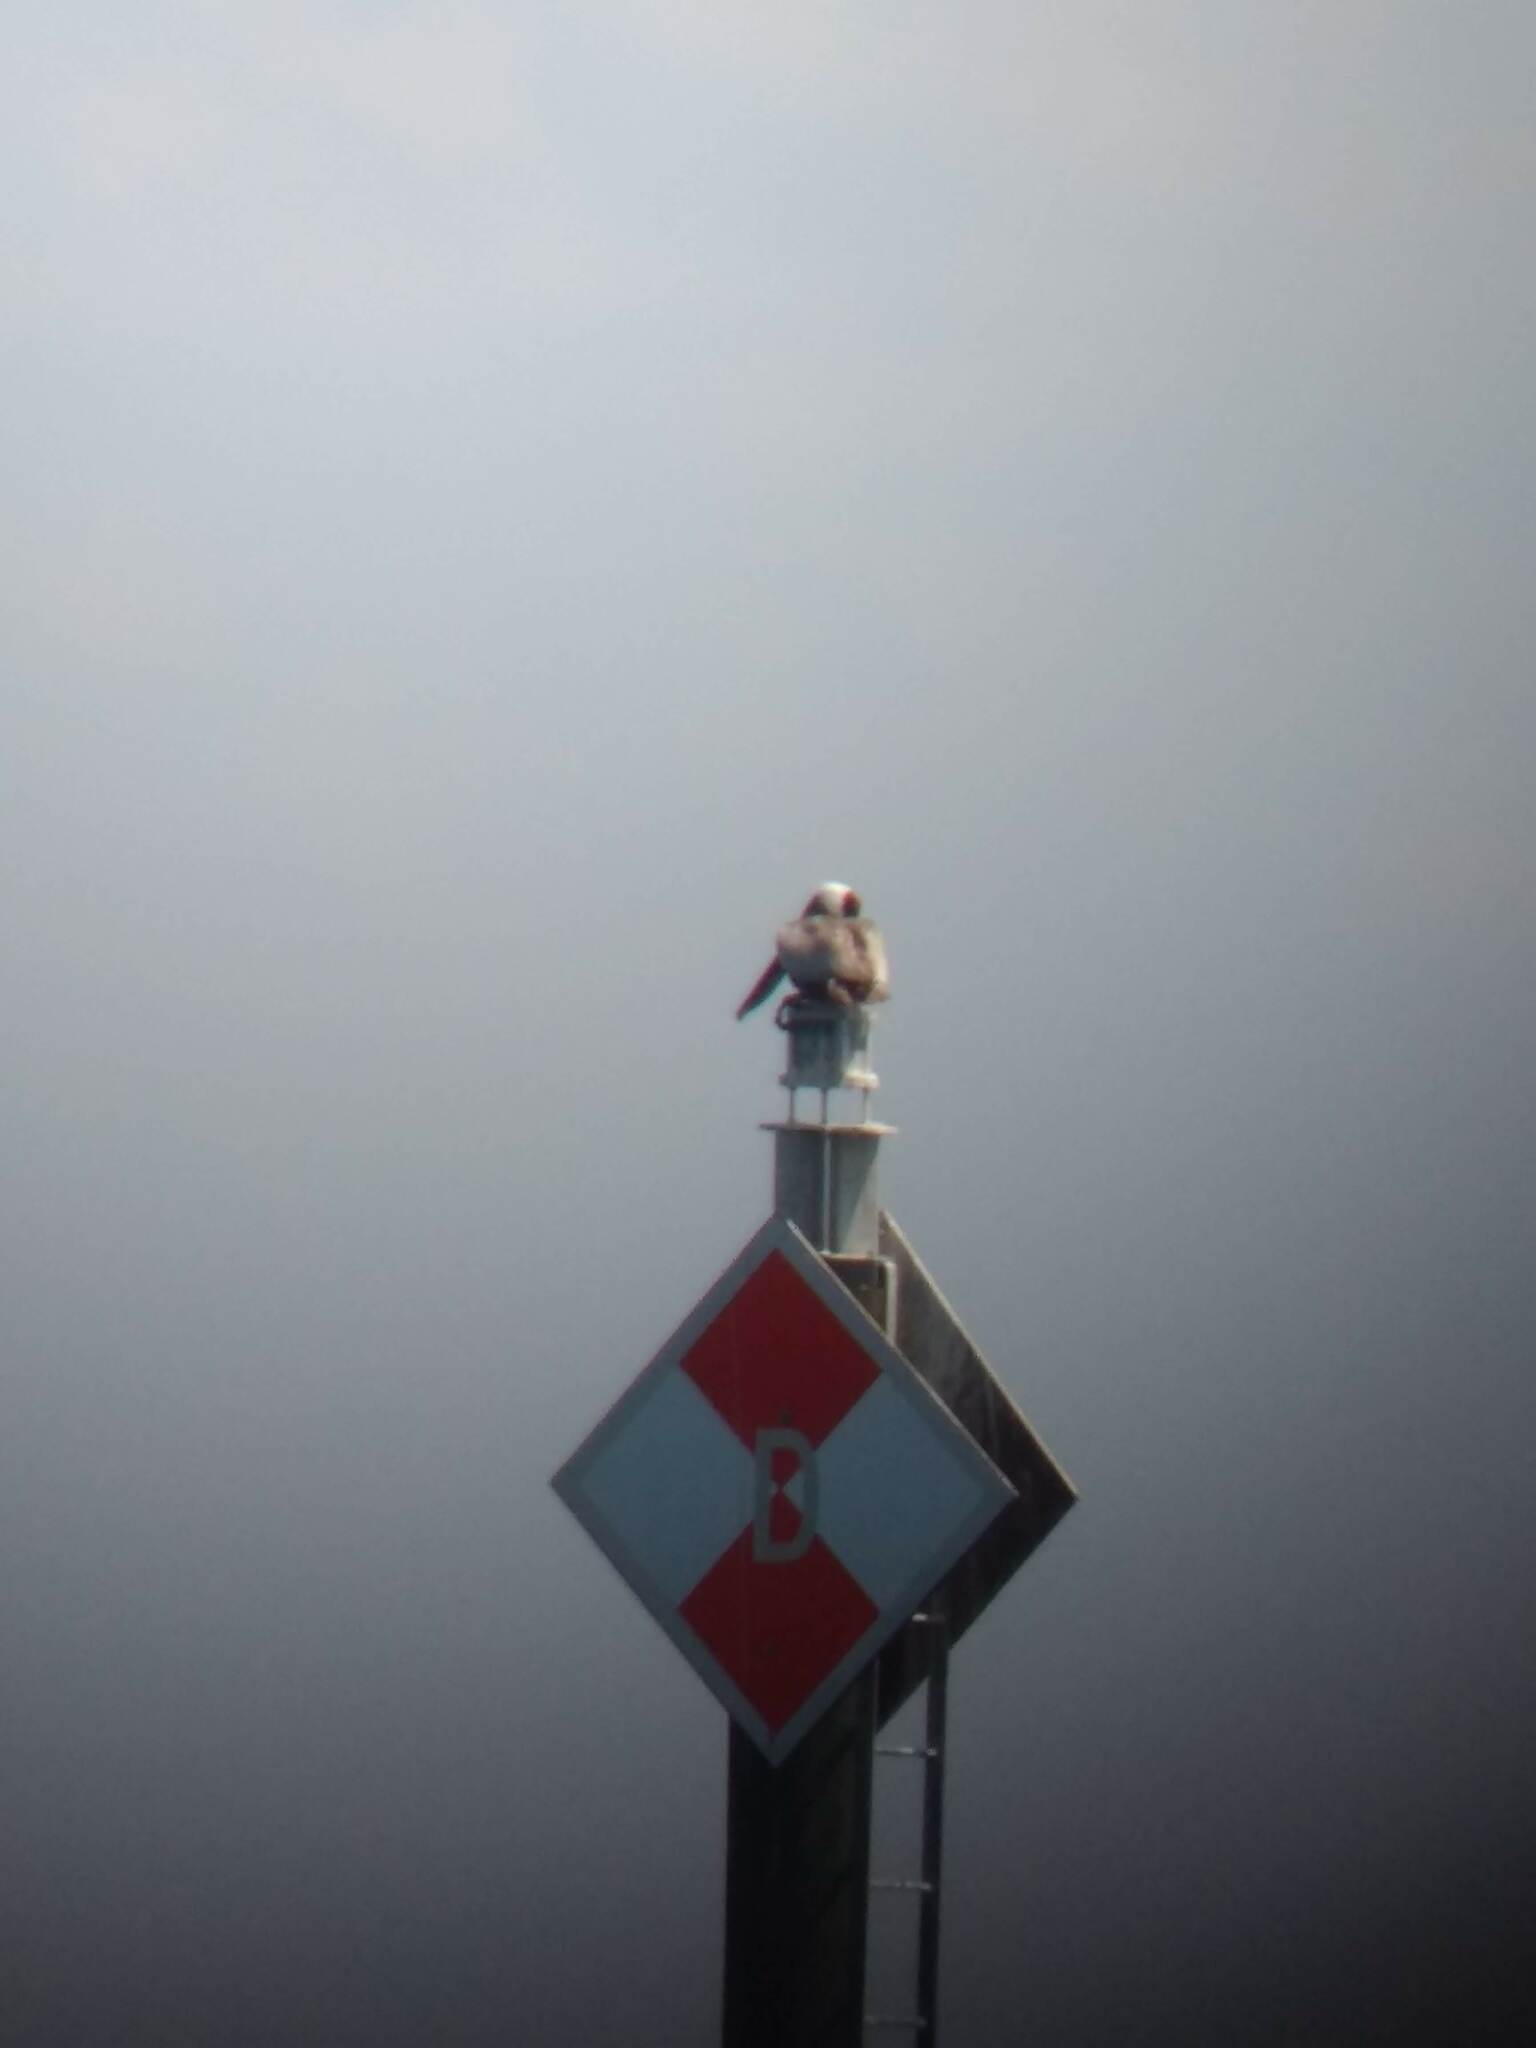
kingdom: Animalia
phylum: Chordata
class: Aves
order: Pelecaniformes
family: Pelecanidae
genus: Pelecanus
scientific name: Pelecanus occidentalis
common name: Brown pelican
